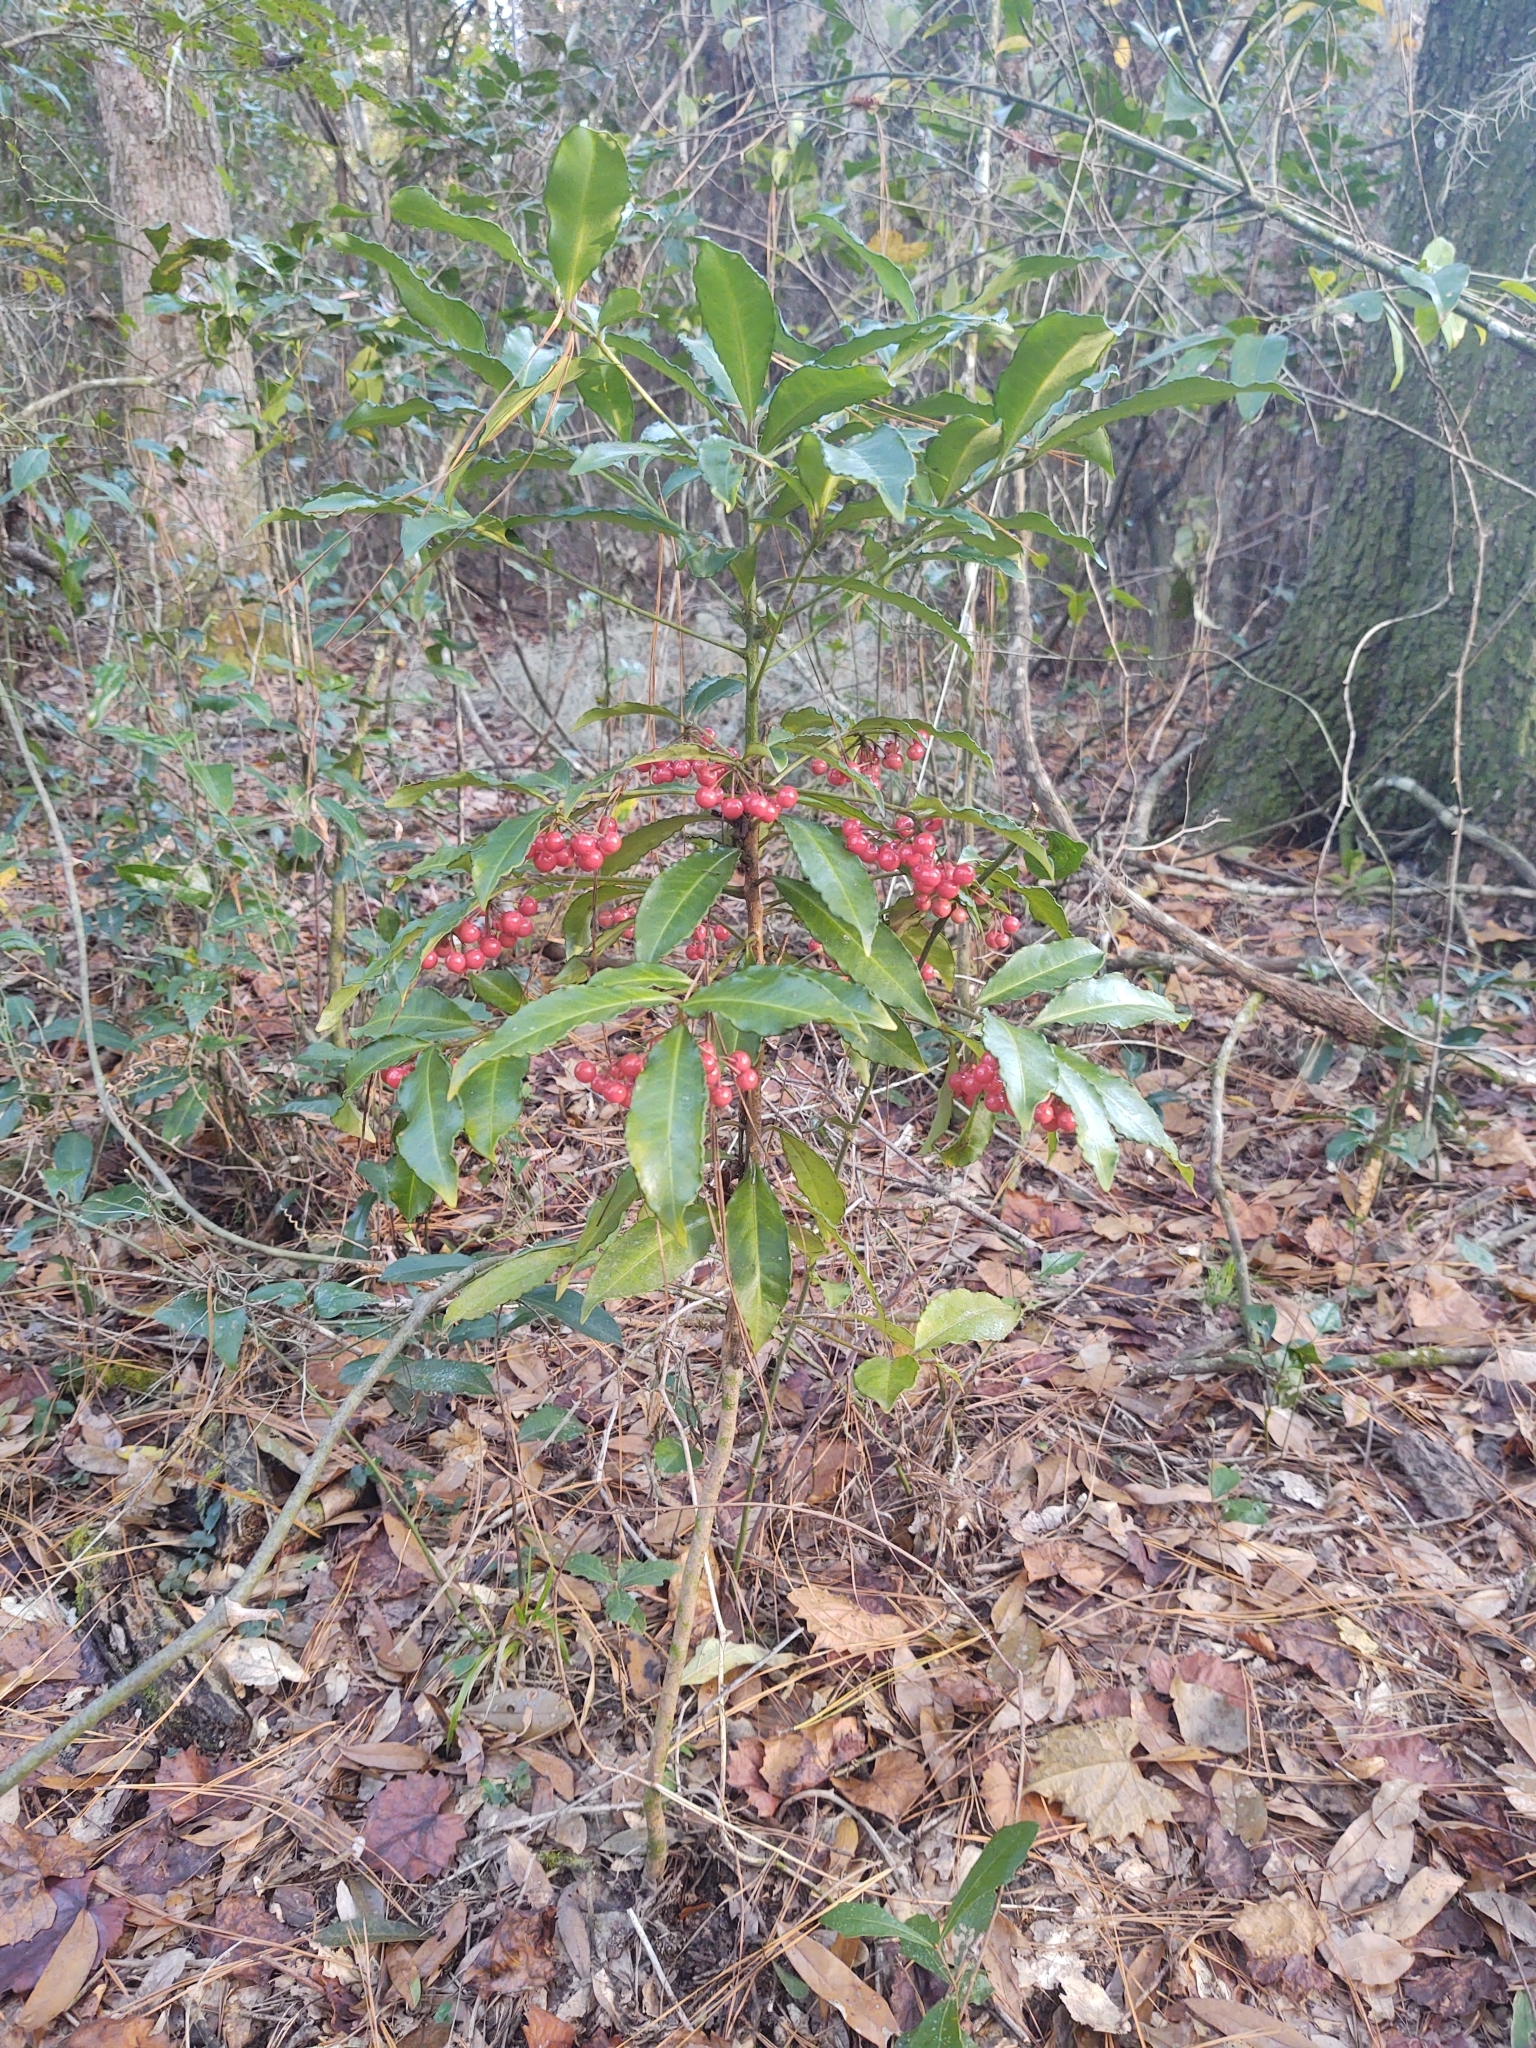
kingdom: Plantae
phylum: Tracheophyta
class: Magnoliopsida
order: Ericales
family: Primulaceae
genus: Ardisia
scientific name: Ardisia crenata
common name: Hen's eyes
